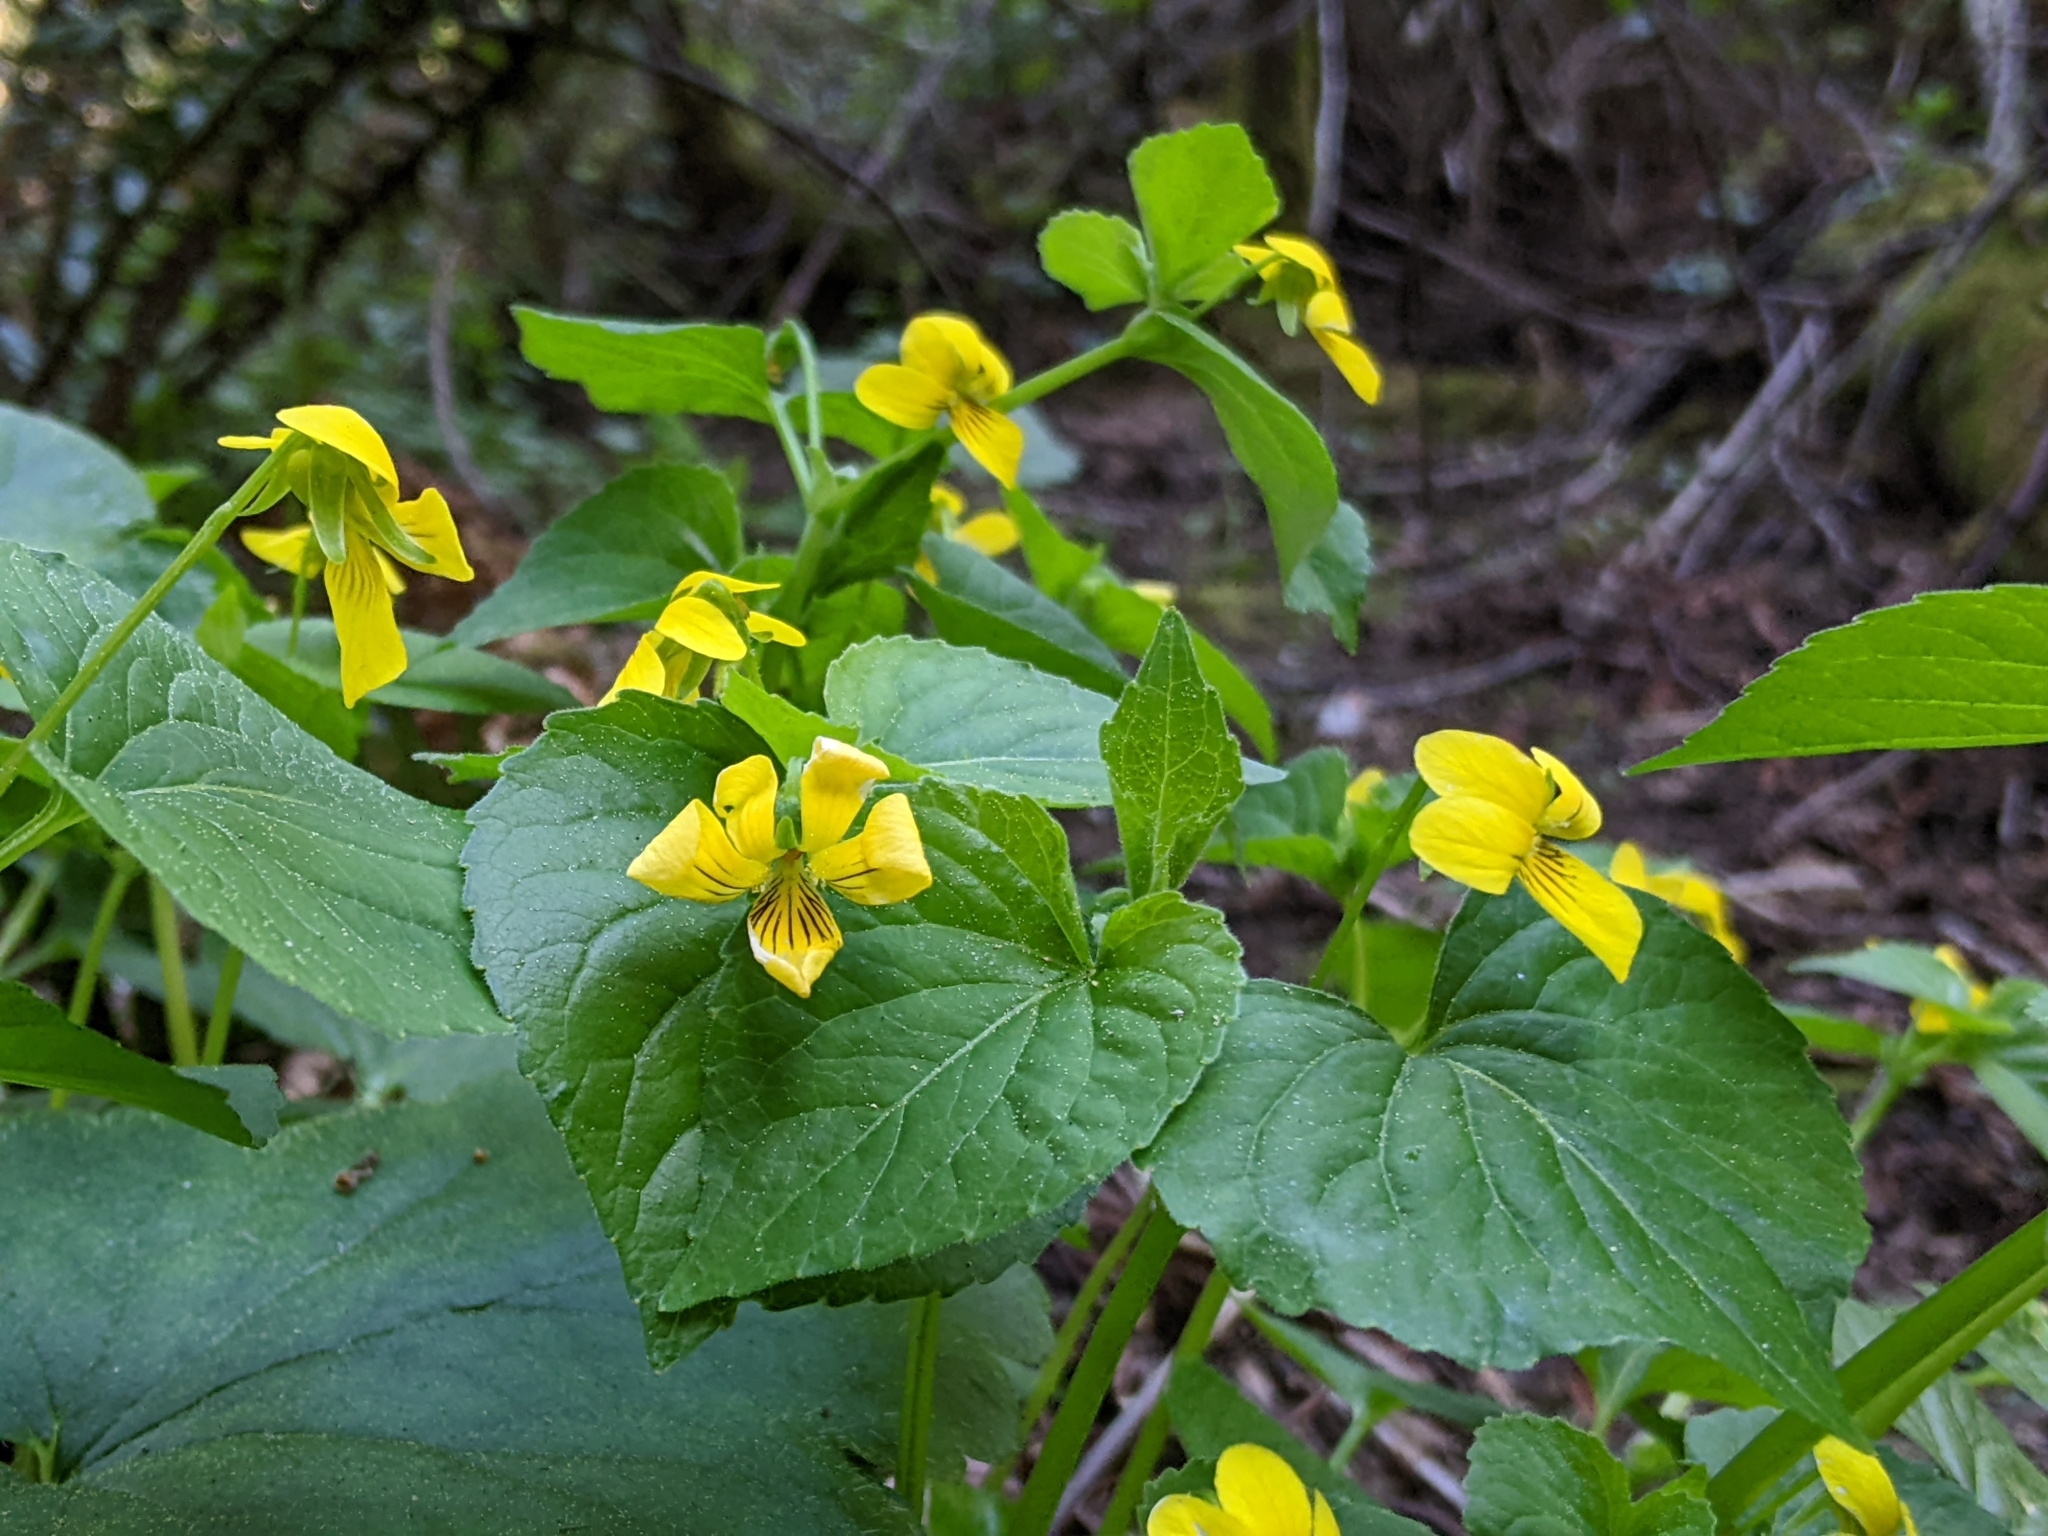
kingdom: Plantae
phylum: Tracheophyta
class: Magnoliopsida
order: Malpighiales
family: Violaceae
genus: Viola
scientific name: Viola glabella
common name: Stream violet
